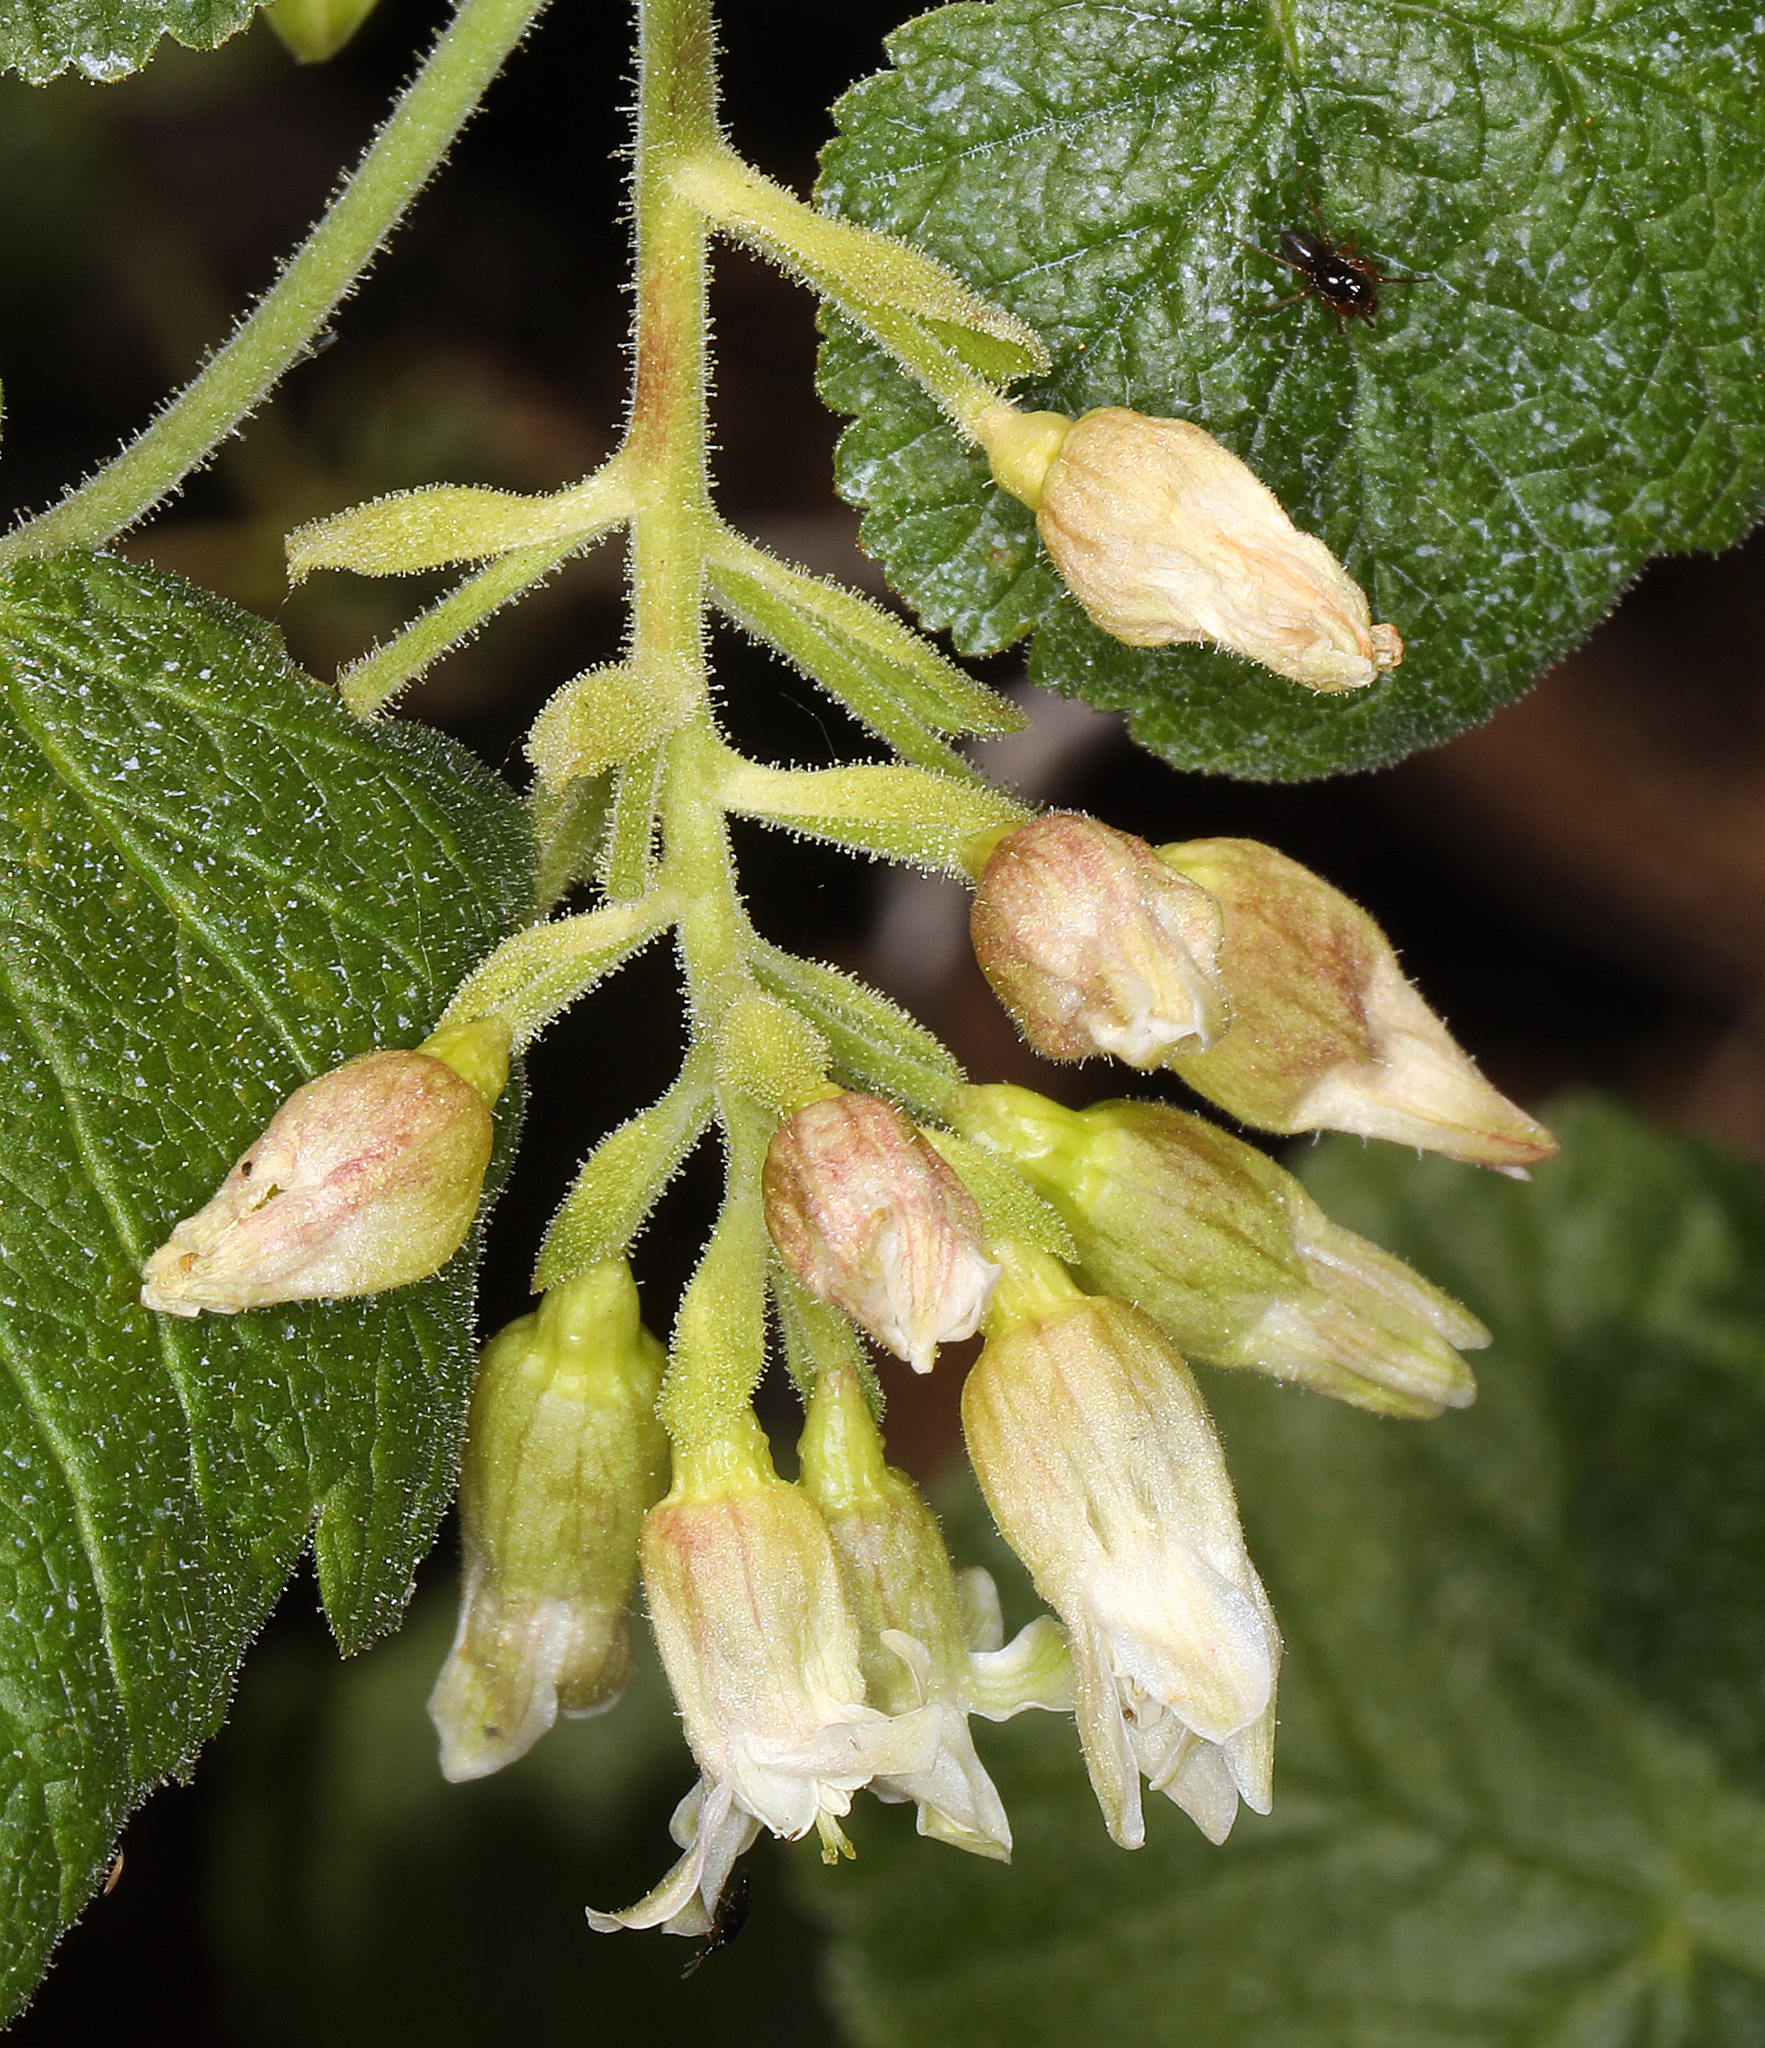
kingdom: Plantae
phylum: Tracheophyta
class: Magnoliopsida
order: Saxifragales
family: Grossulariaceae
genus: Ribes
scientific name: Ribes viscosissimum
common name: Sticky currant
